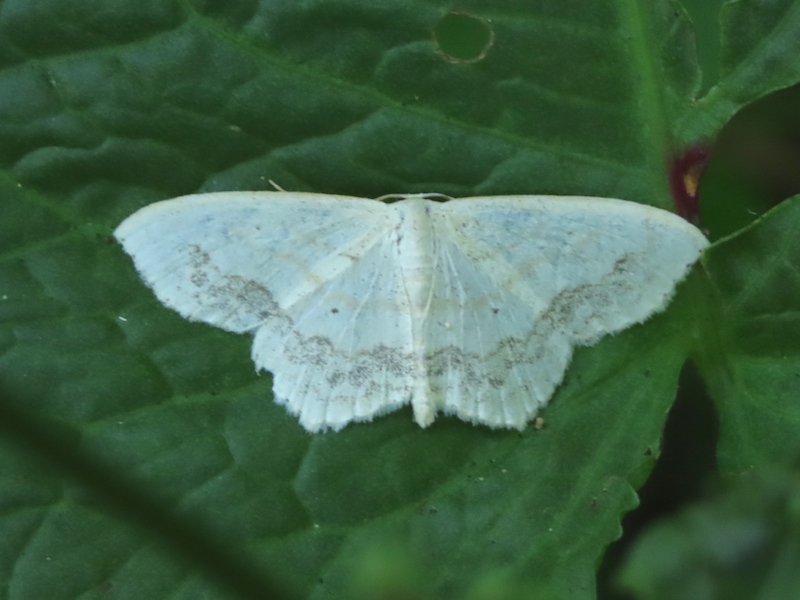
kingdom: Animalia
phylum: Arthropoda
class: Insecta
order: Lepidoptera
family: Geometridae
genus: Scopula
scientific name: Scopula limboundata
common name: Large lace border
